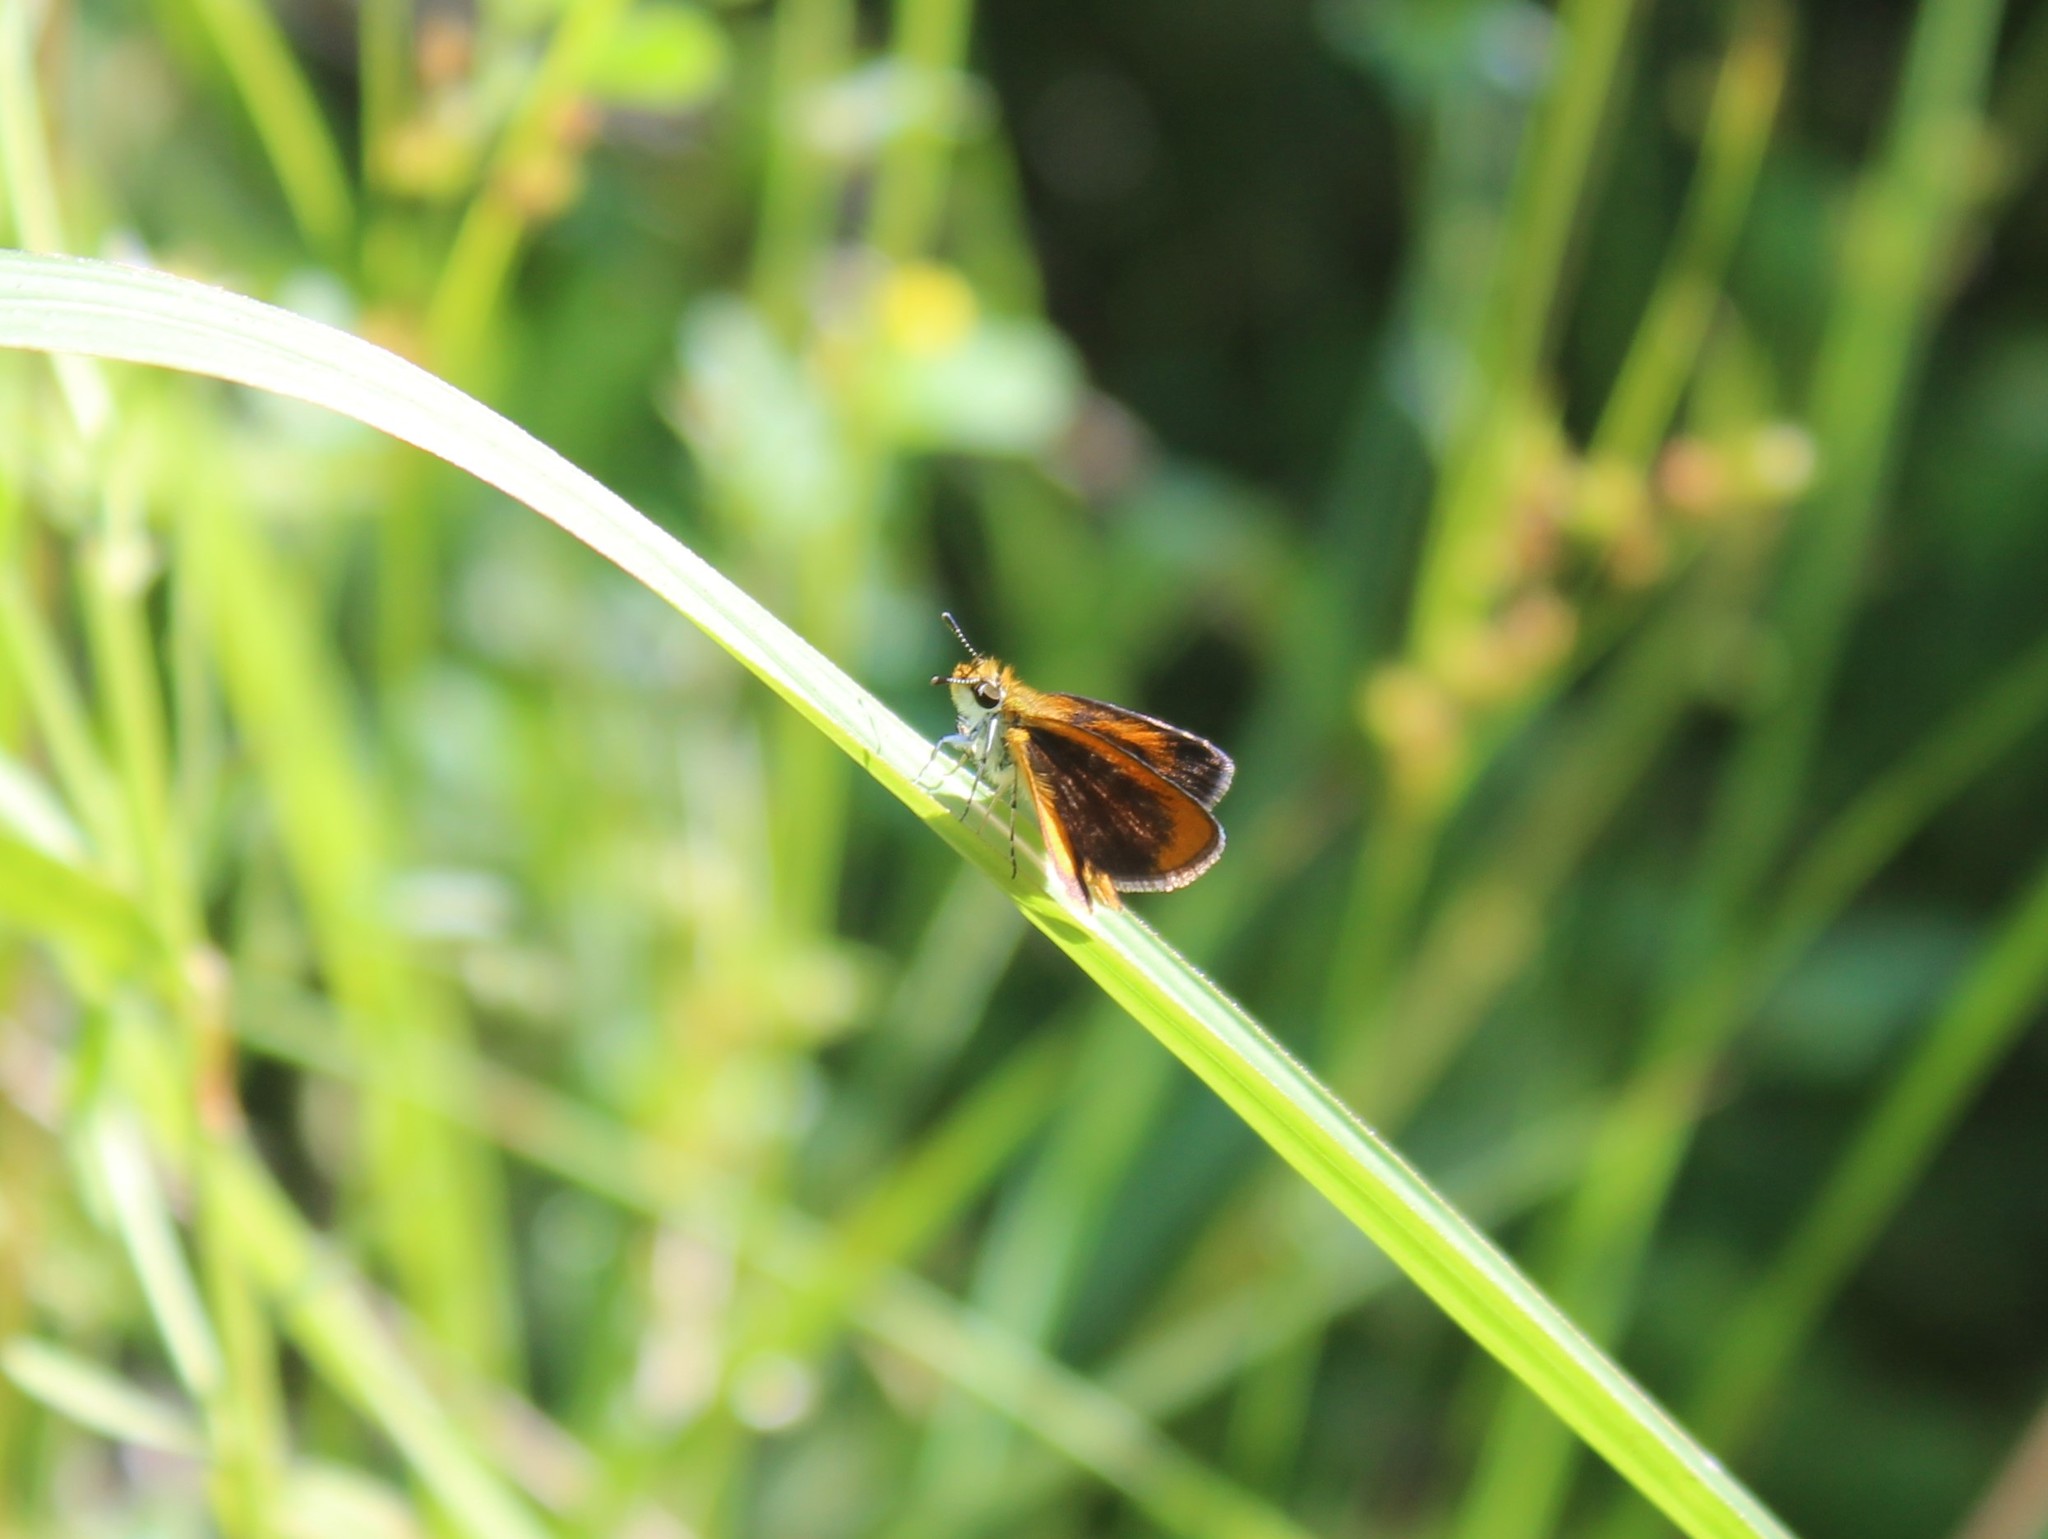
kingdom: Animalia
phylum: Arthropoda
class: Insecta
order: Lepidoptera
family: Hesperiidae
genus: Ancyloxypha
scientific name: Ancyloxypha numitor
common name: Least skipper
